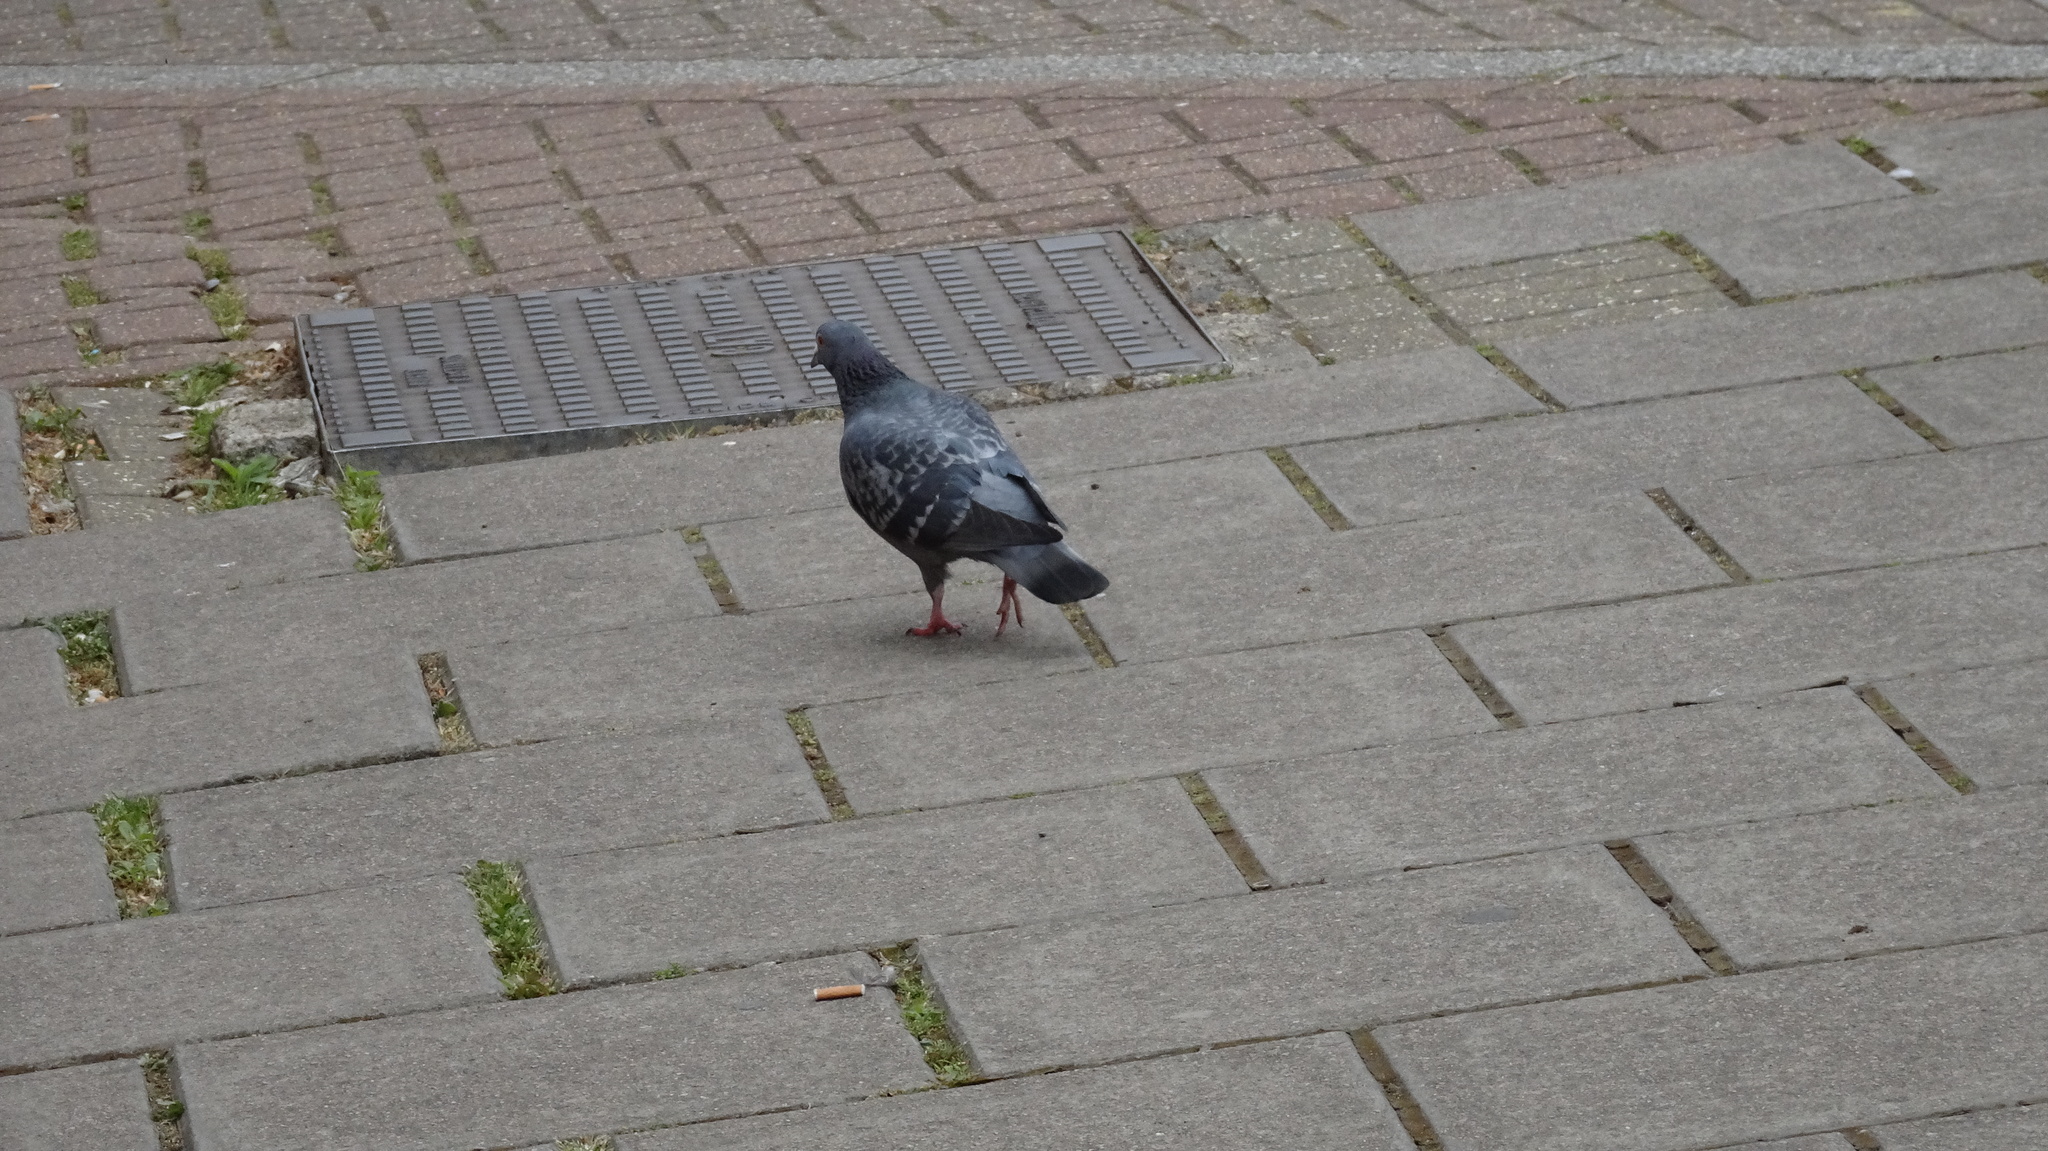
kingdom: Animalia
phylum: Chordata
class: Aves
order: Columbiformes
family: Columbidae
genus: Columba
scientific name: Columba livia
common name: Rock pigeon
